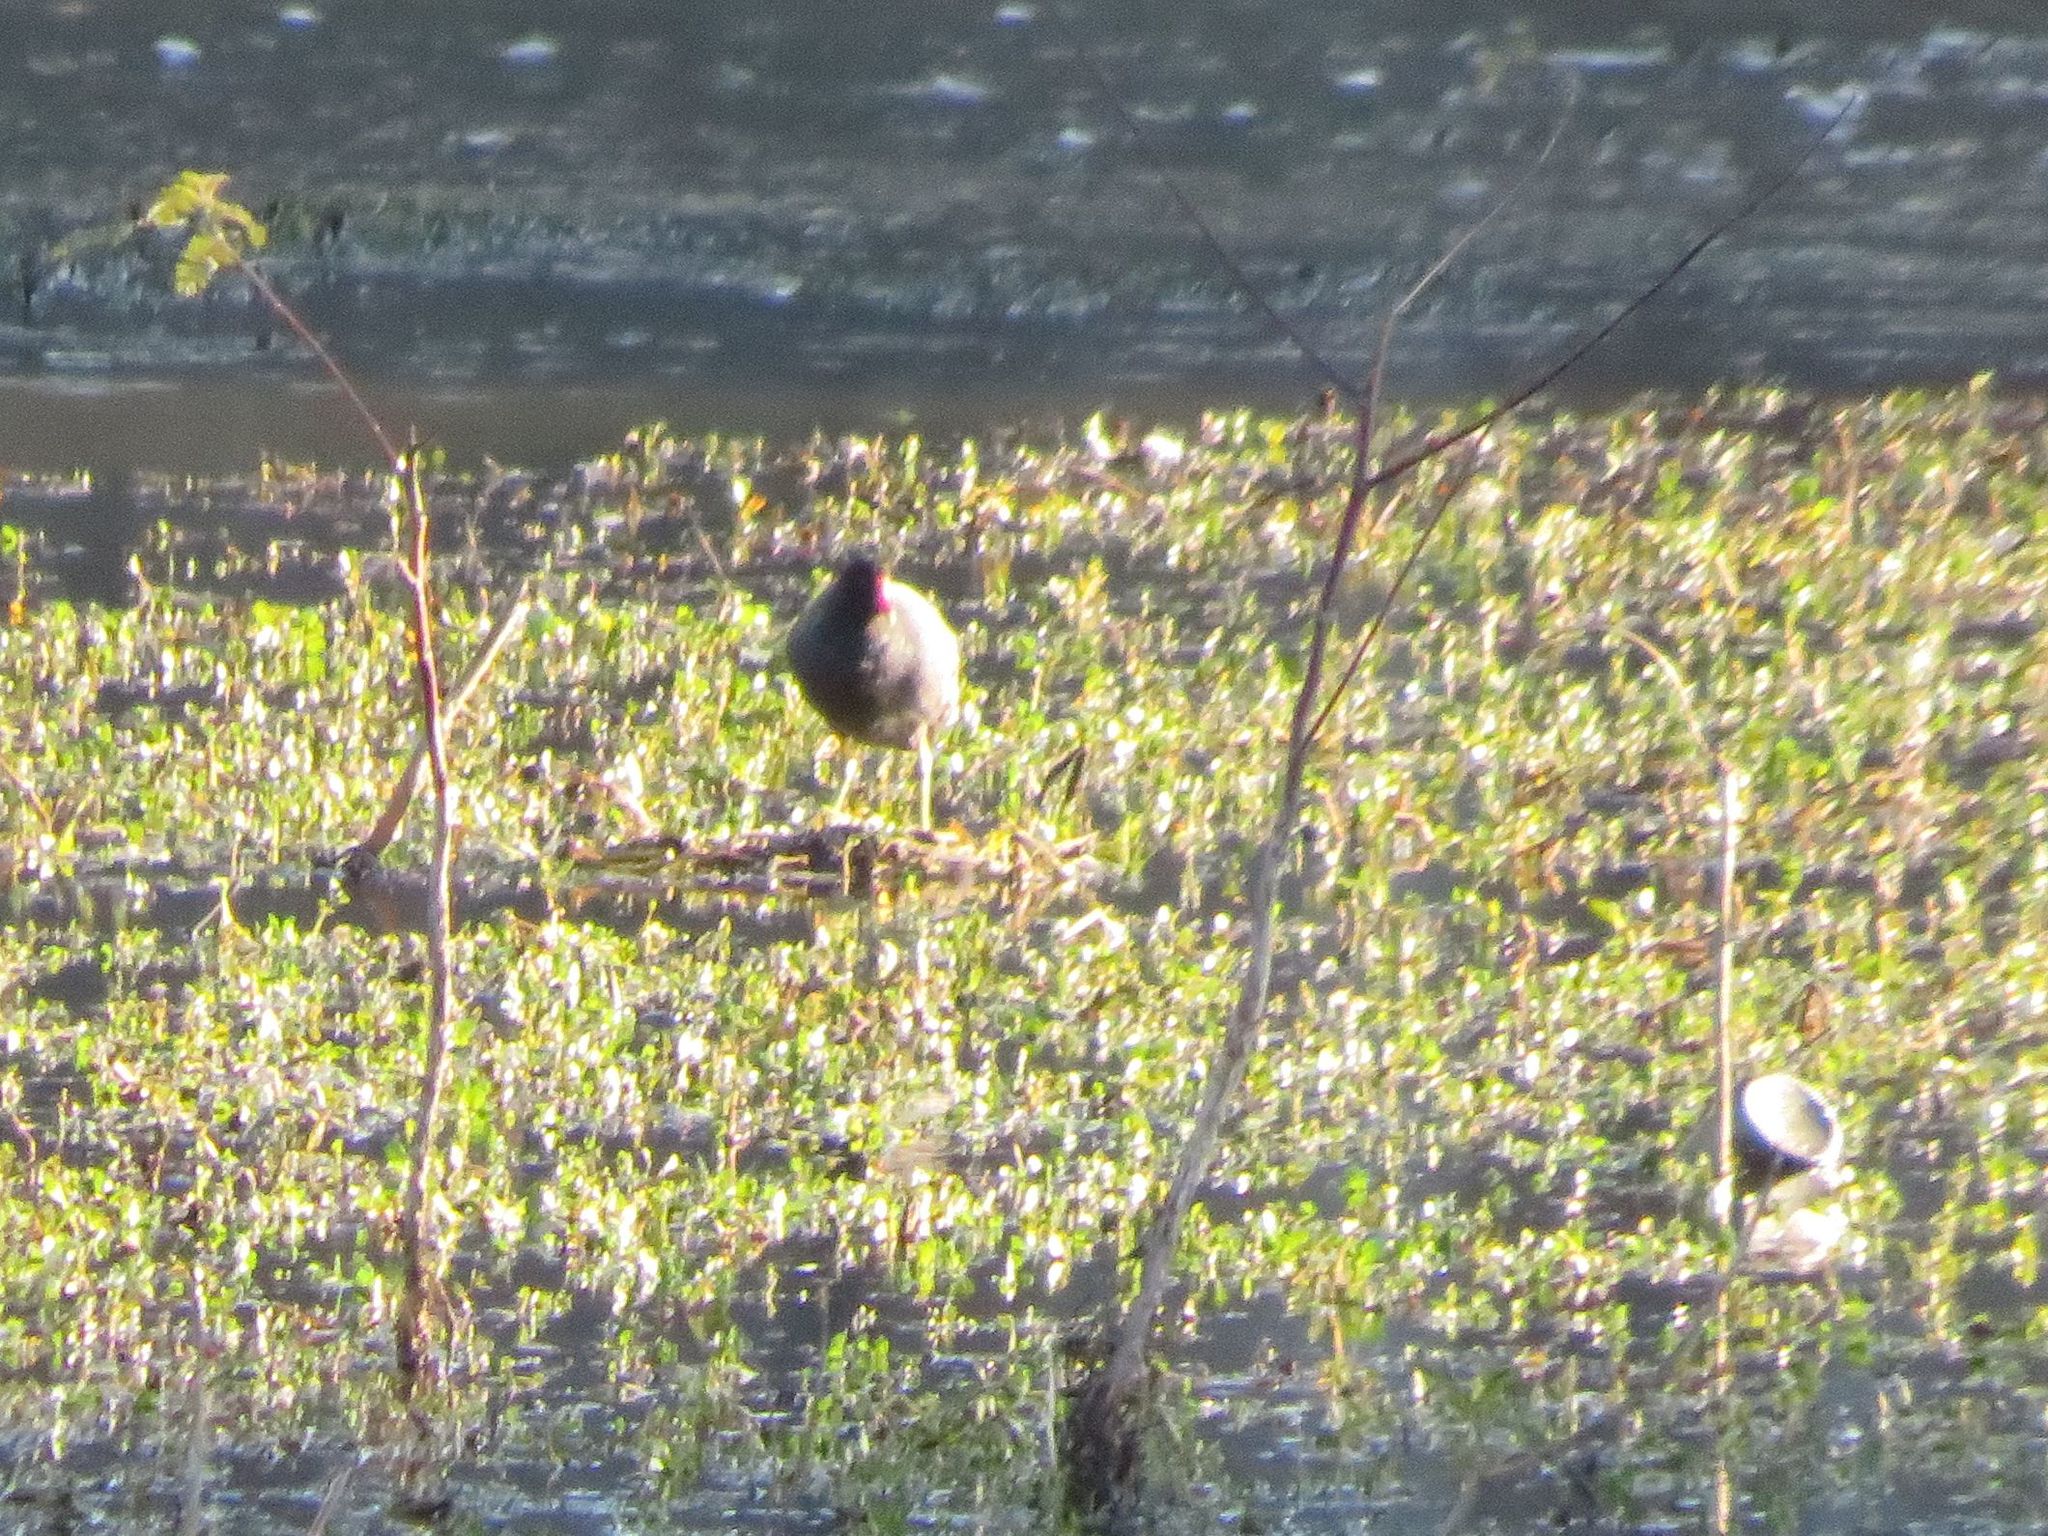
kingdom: Animalia
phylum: Chordata
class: Aves
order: Gruiformes
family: Rallidae
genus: Gallinula
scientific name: Gallinula chloropus
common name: Common moorhen
